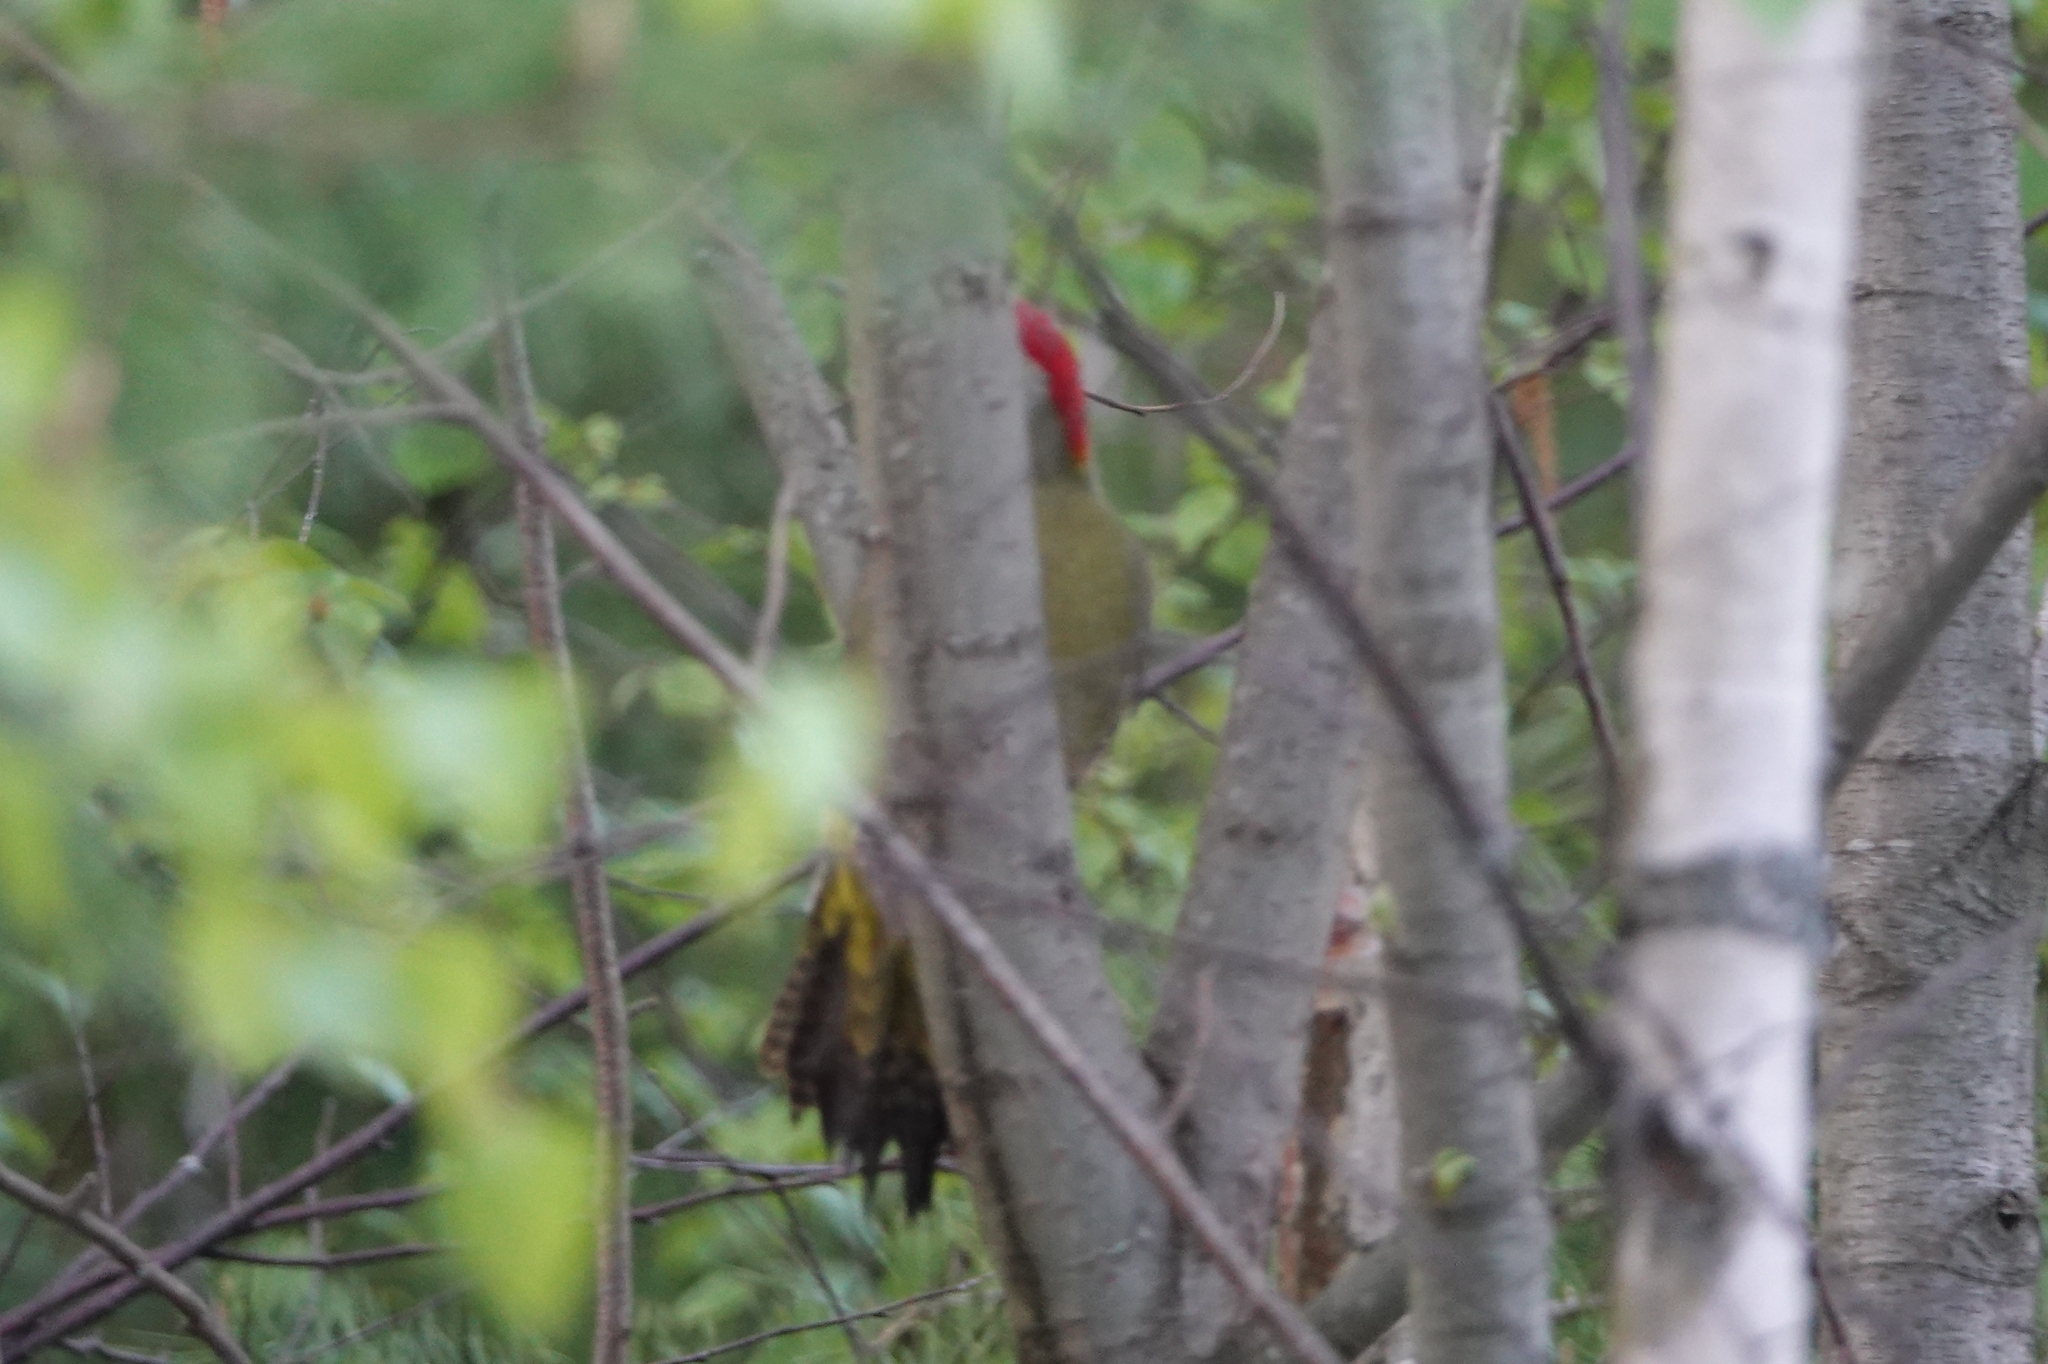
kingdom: Animalia
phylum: Chordata
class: Aves
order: Piciformes
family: Picidae
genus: Picus
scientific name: Picus viridis
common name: European green woodpecker
